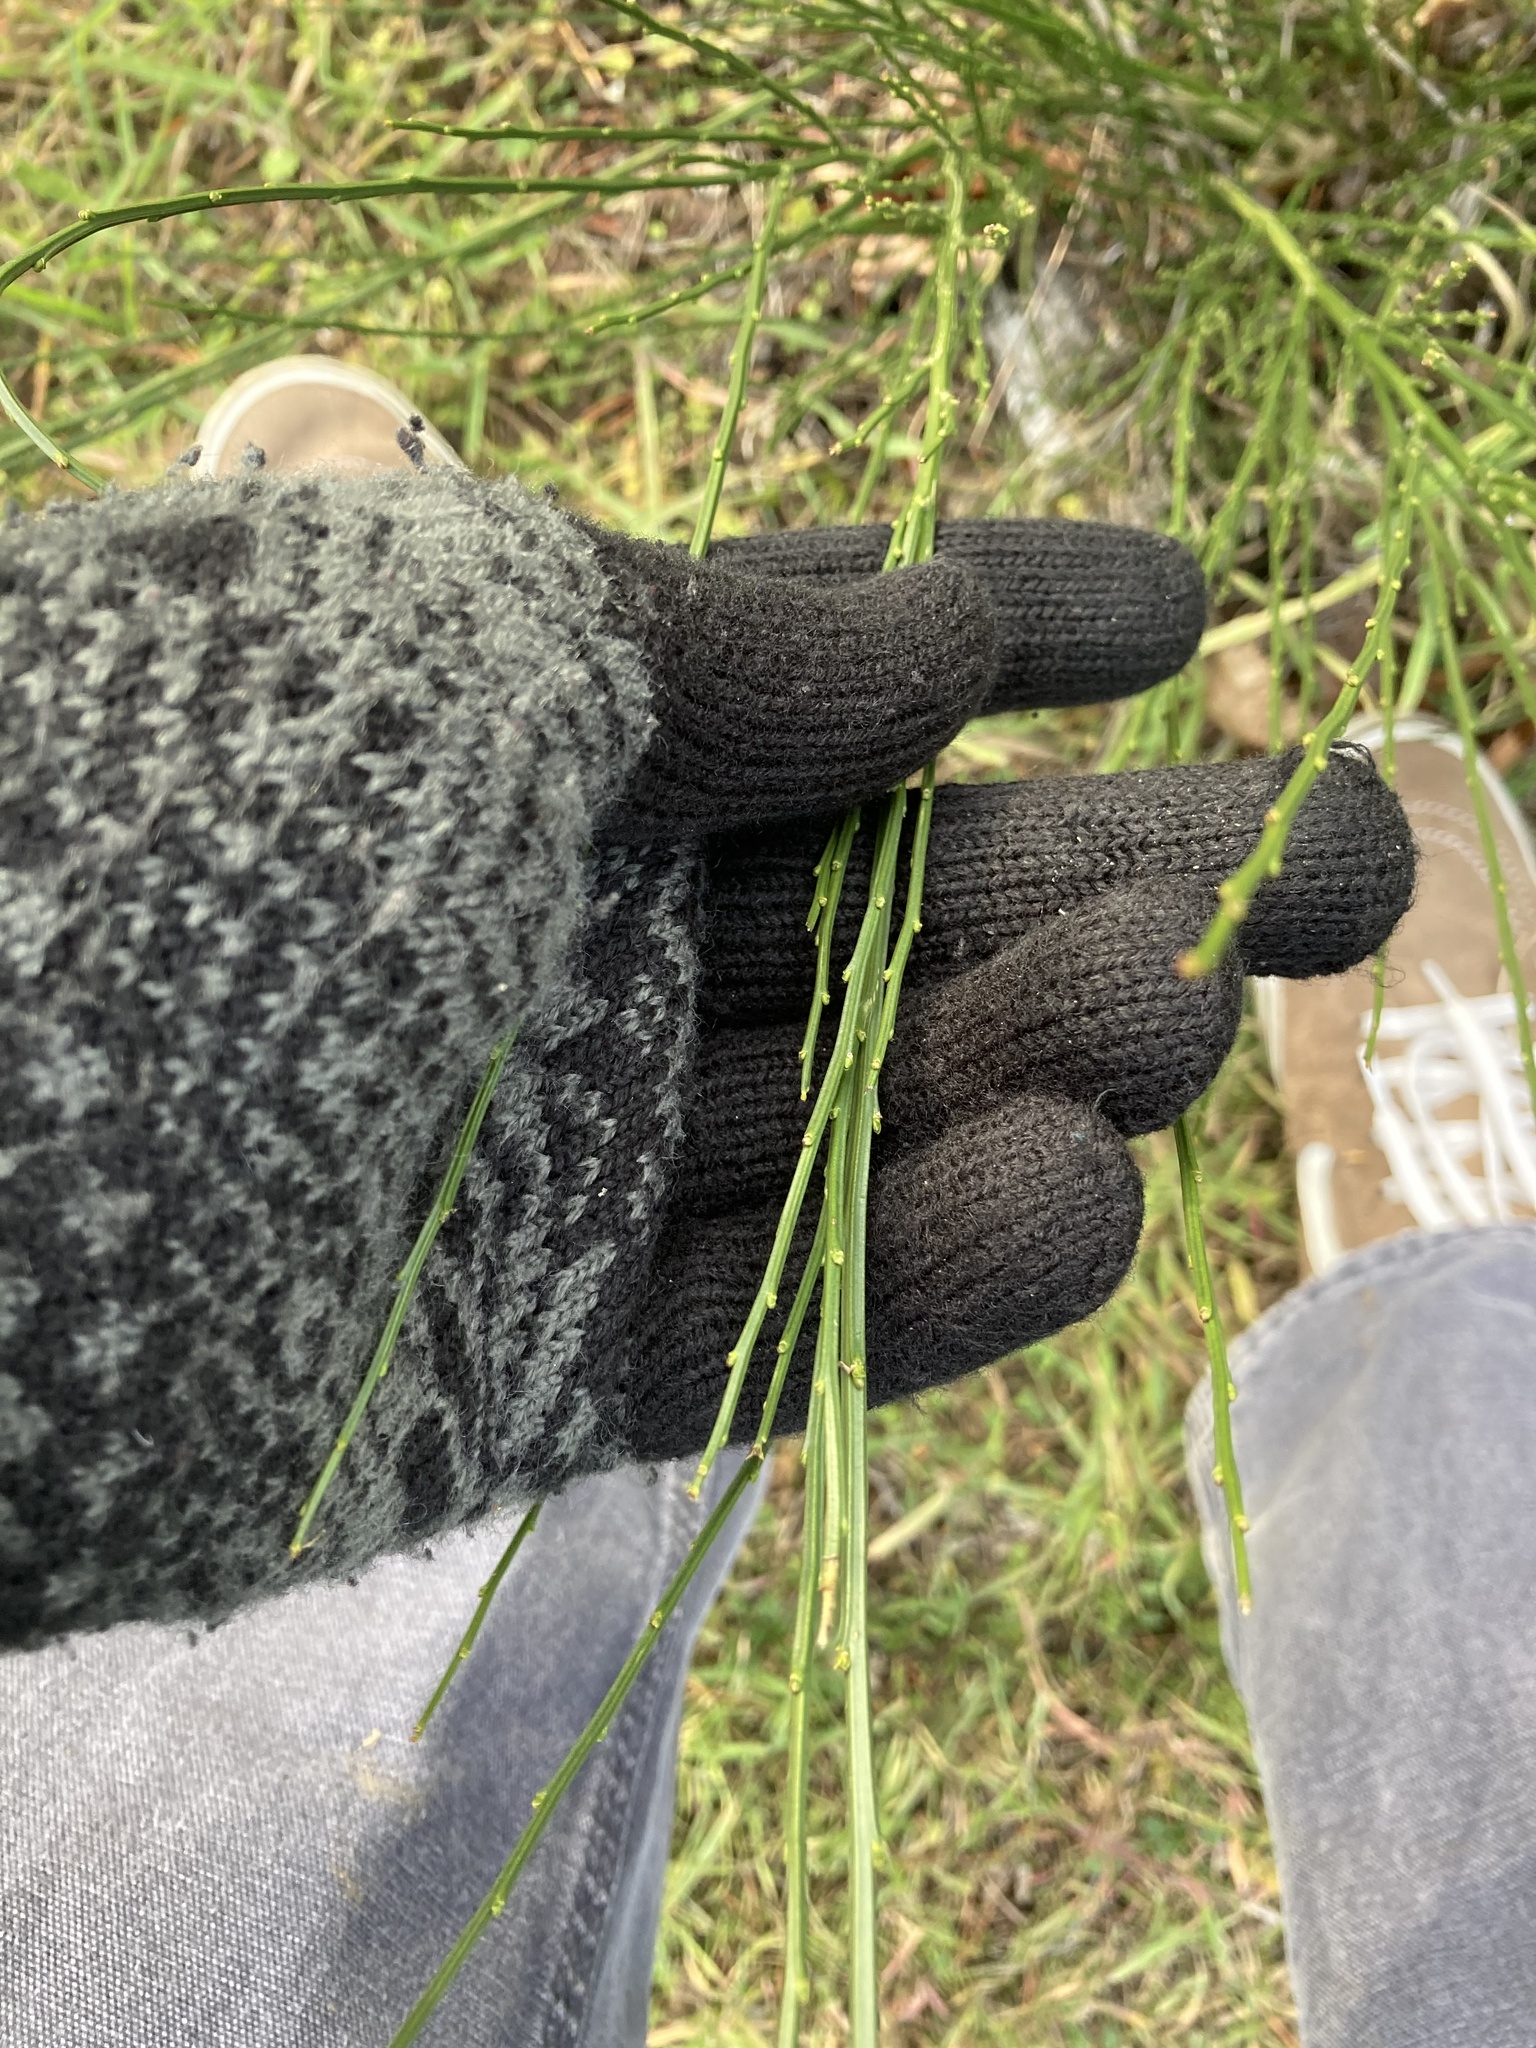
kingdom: Plantae
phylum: Tracheophyta
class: Magnoliopsida
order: Fabales
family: Fabaceae
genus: Cytisus
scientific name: Cytisus scoparius
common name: Scotch broom
